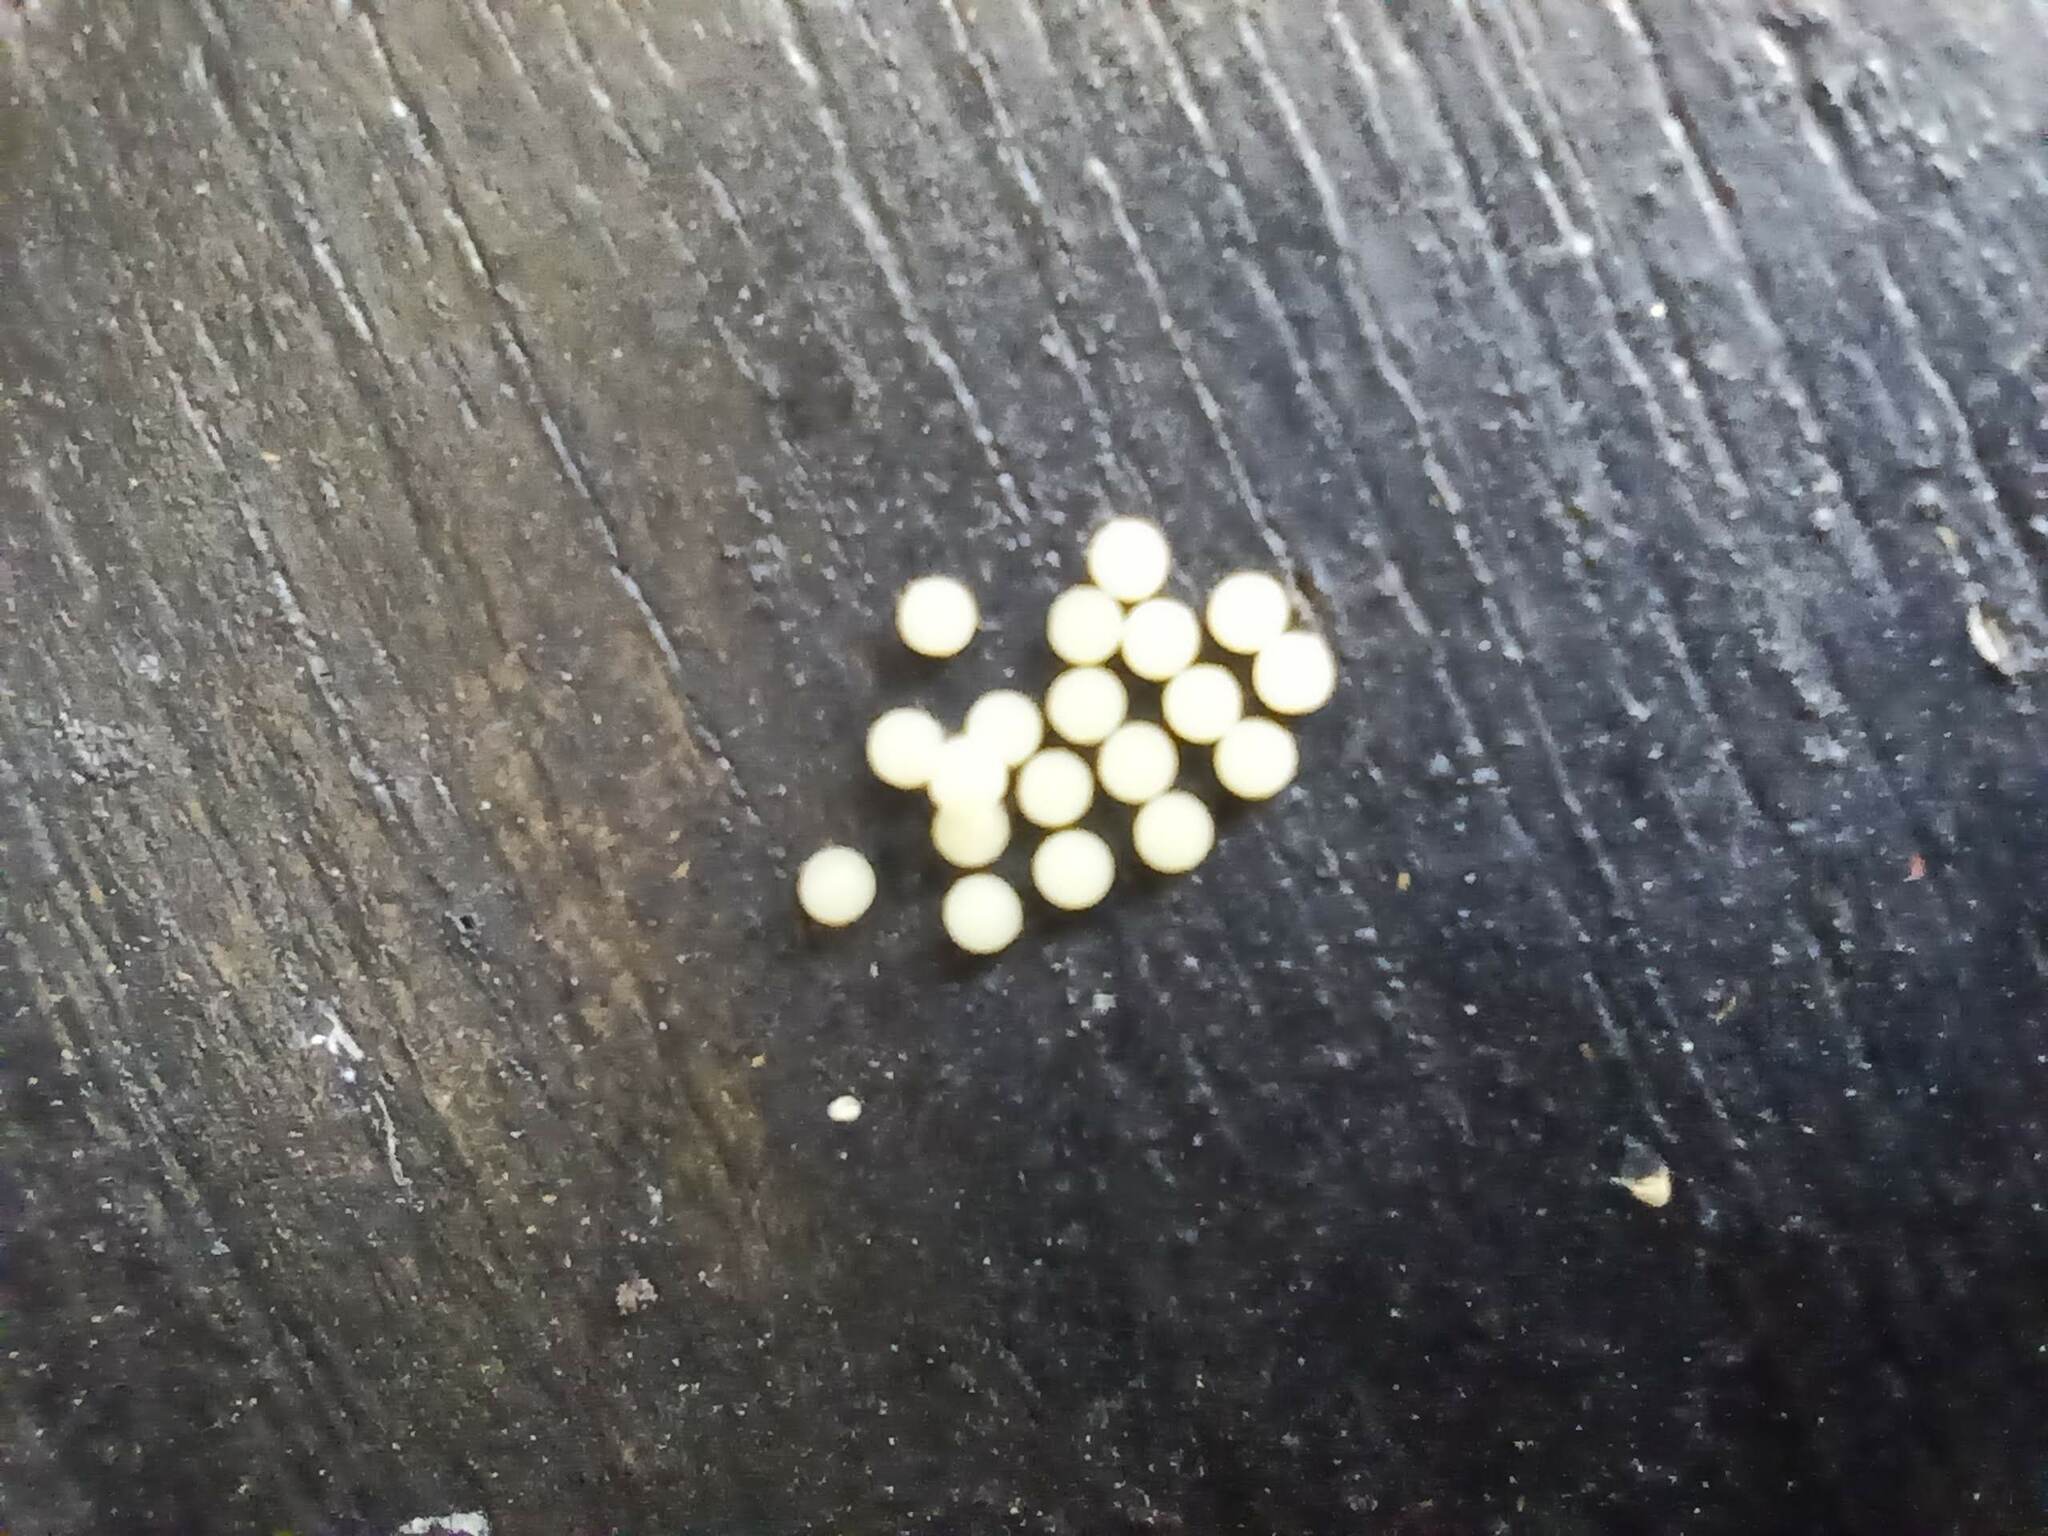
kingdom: Animalia
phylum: Arthropoda
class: Insecta
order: Lepidoptera
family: Erebidae
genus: Euplagia
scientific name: Euplagia quadripunctaria
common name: Jersey tiger
